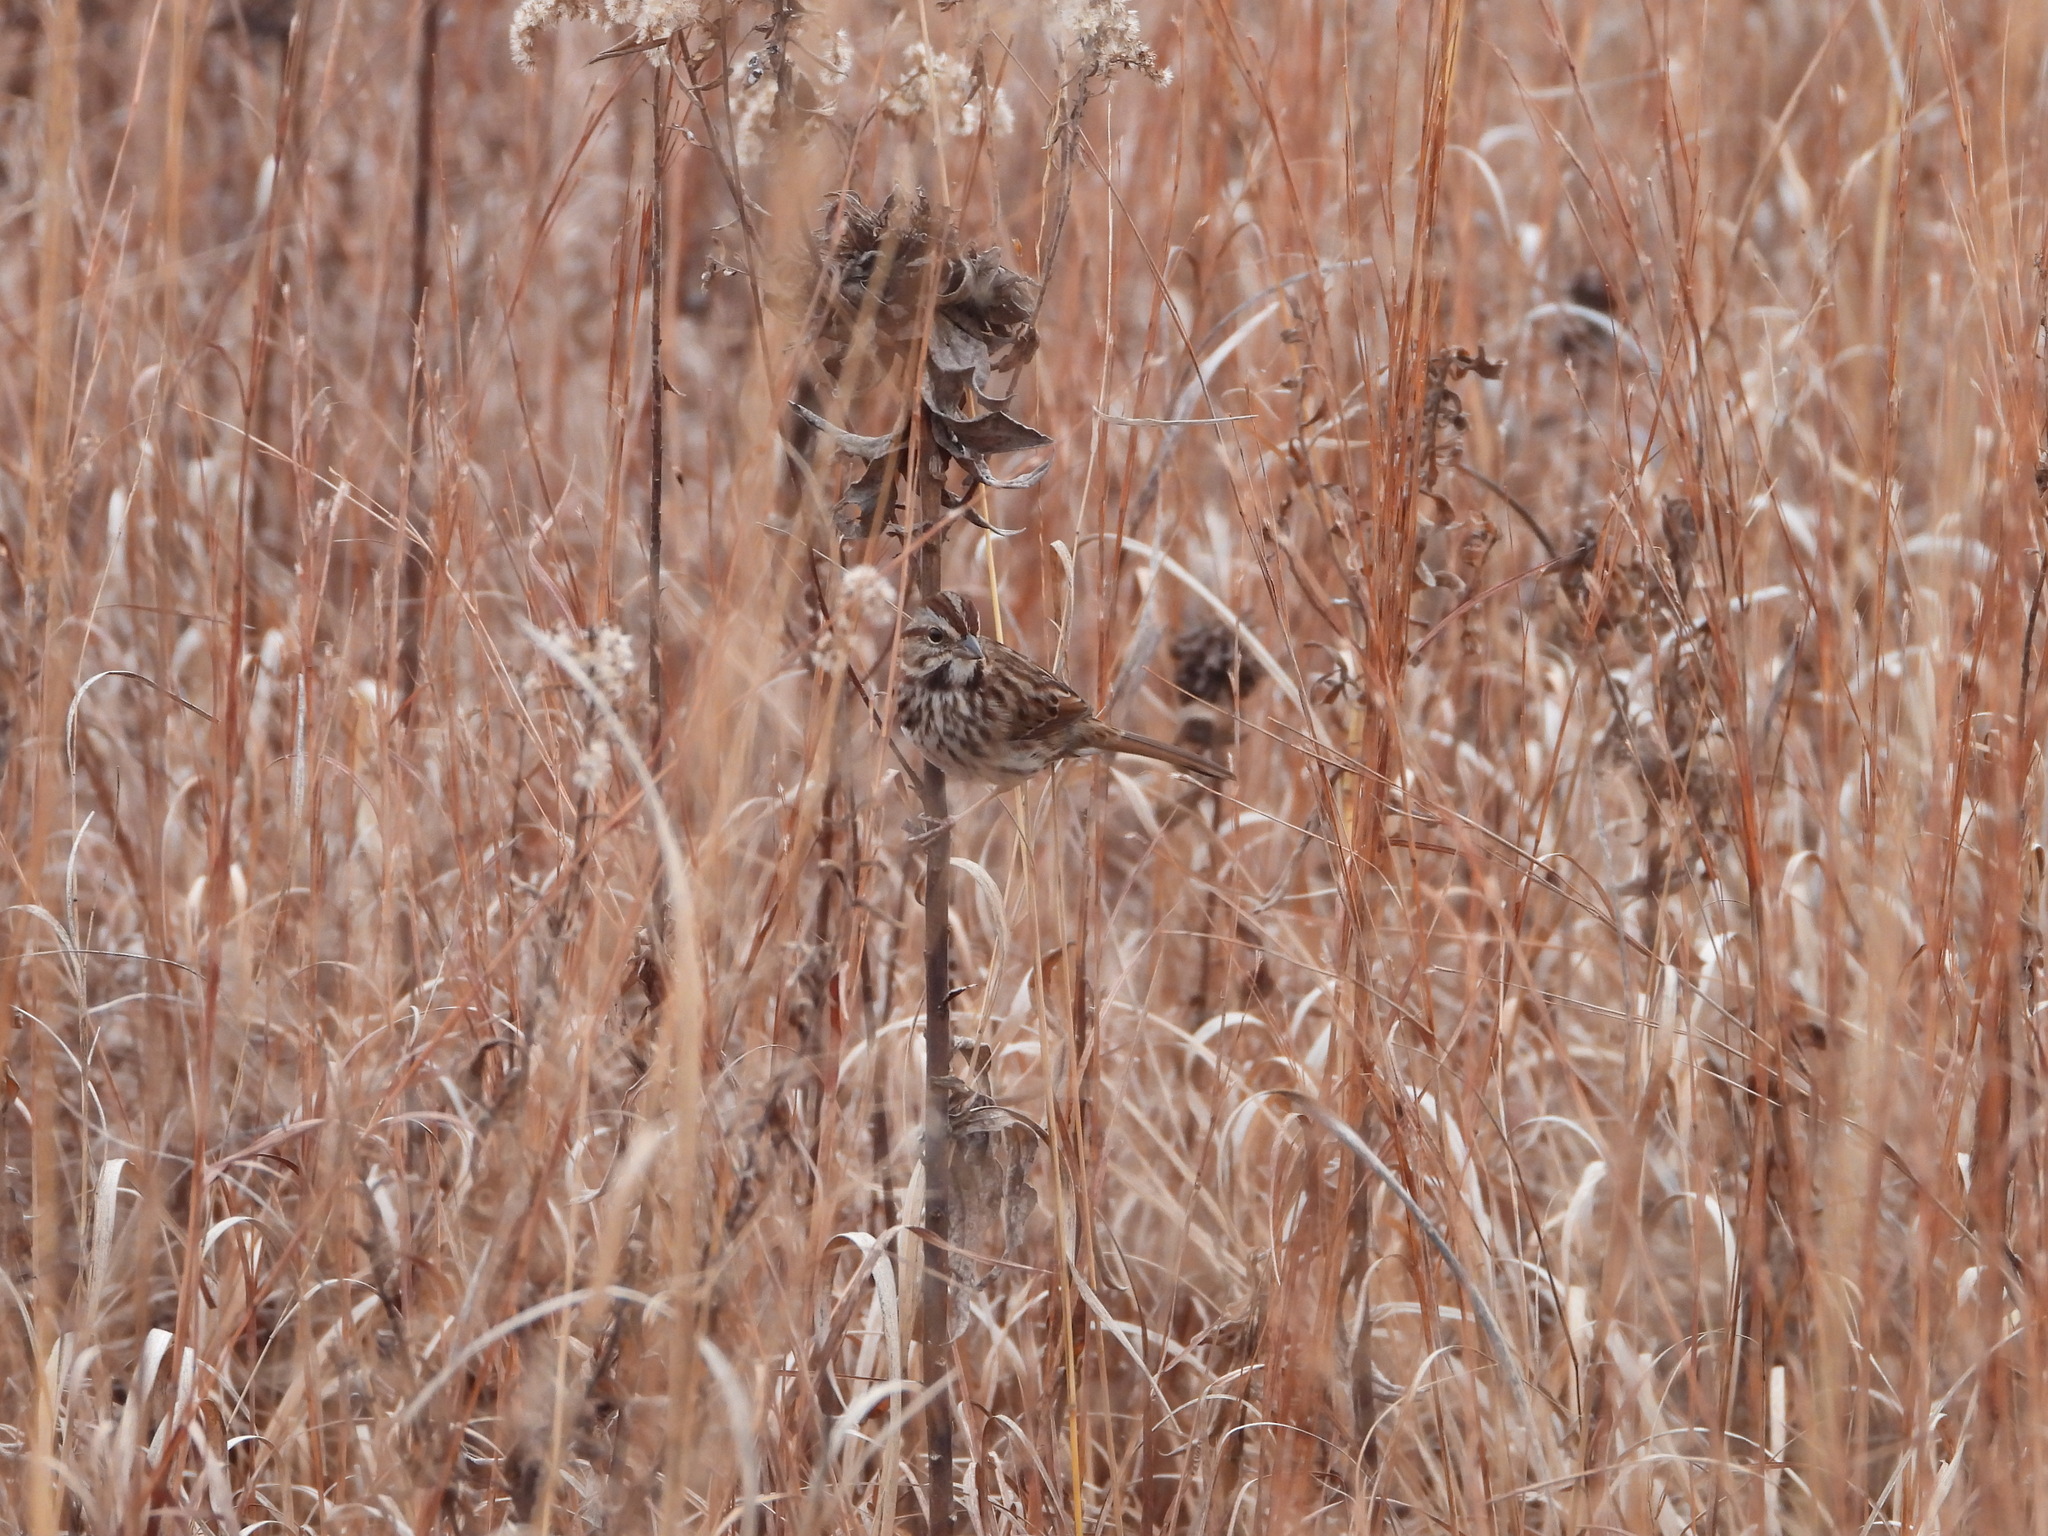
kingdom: Animalia
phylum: Chordata
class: Aves
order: Passeriformes
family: Passerellidae
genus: Melospiza
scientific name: Melospiza melodia
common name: Song sparrow
